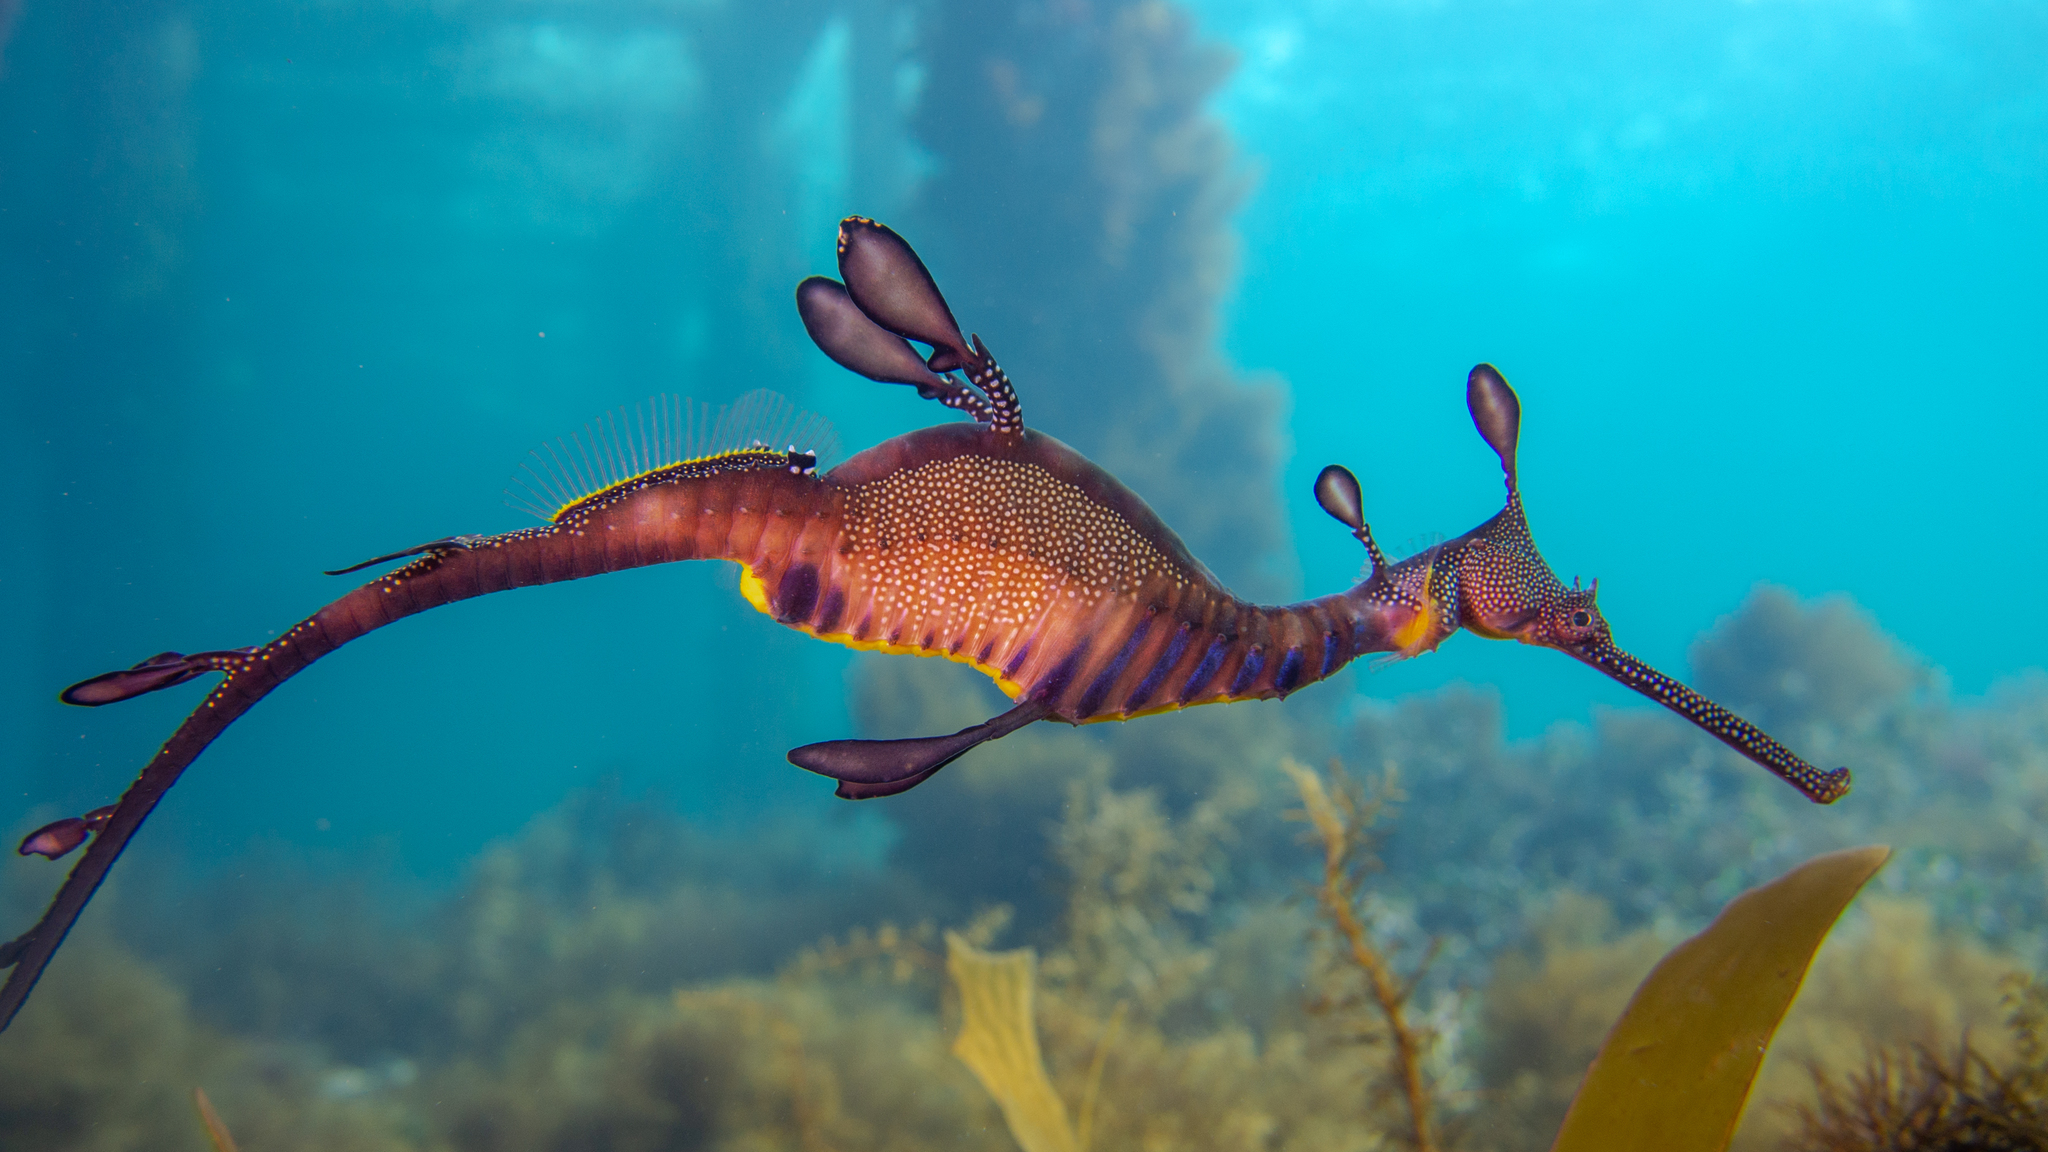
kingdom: Animalia
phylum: Chordata
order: Syngnathiformes
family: Syngnathidae
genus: Phyllopteryx
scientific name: Phyllopteryx taeniolatus
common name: Common seadragon
